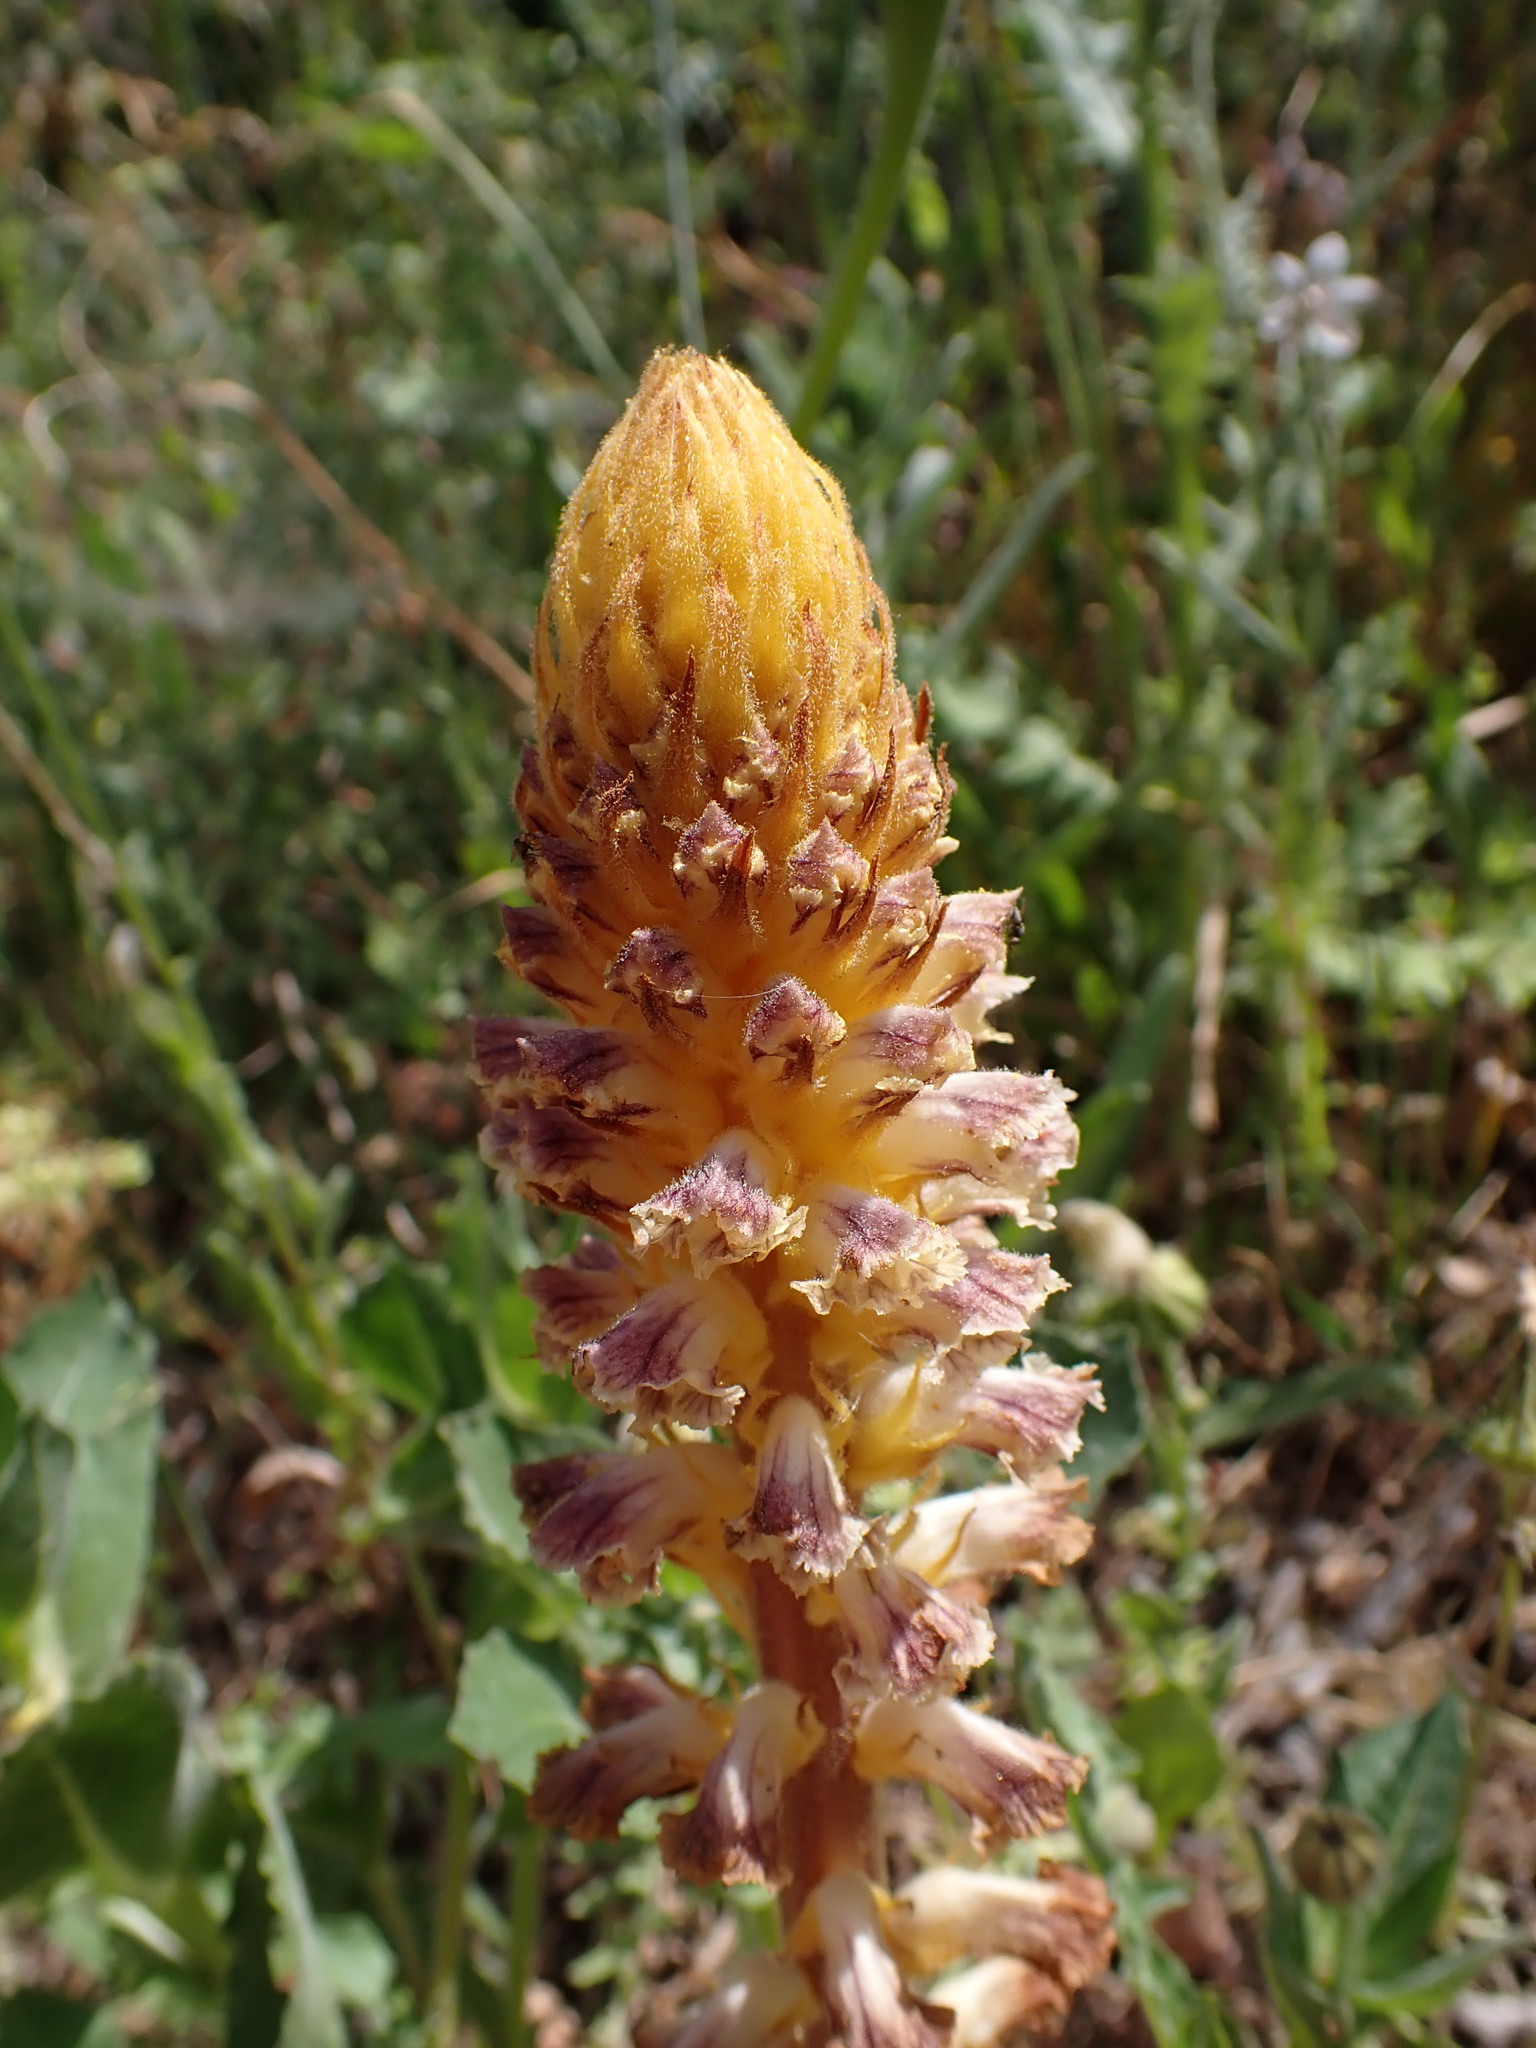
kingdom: Plantae
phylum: Tracheophyta
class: Magnoliopsida
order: Lamiales
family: Orobanchaceae
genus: Orobanche
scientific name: Orobanche minor
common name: Common broomrape
